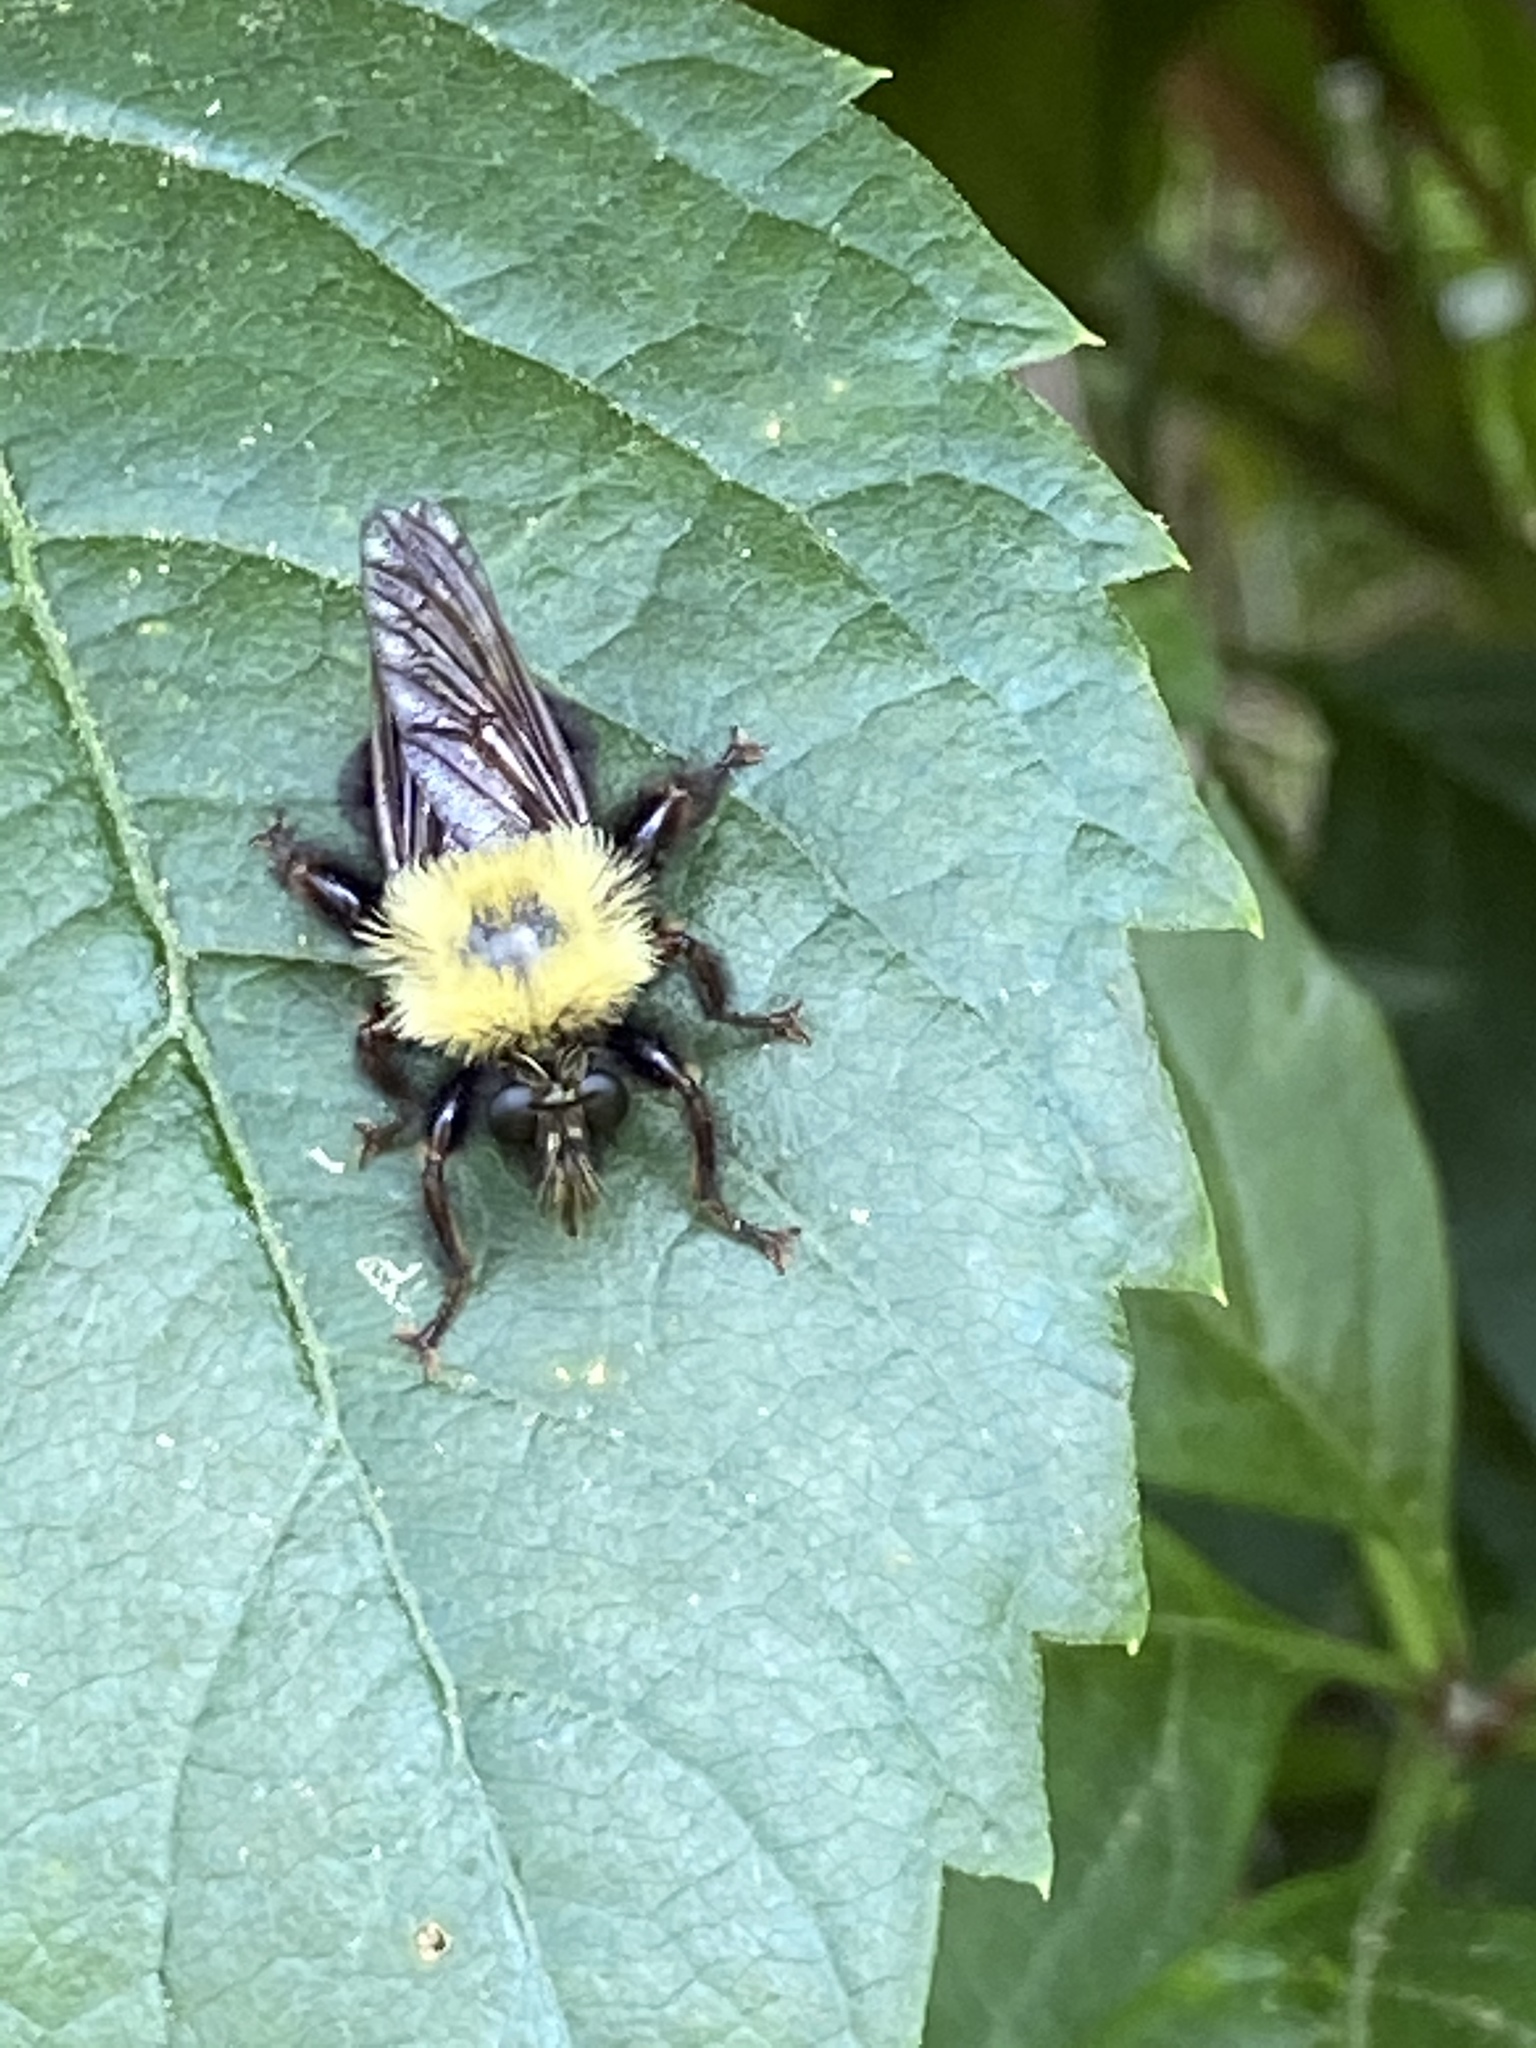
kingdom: Animalia
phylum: Arthropoda
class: Insecta
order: Diptera
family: Asilidae
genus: Laphria
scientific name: Laphria thoracica
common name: Bumble bee mimic robber fly
